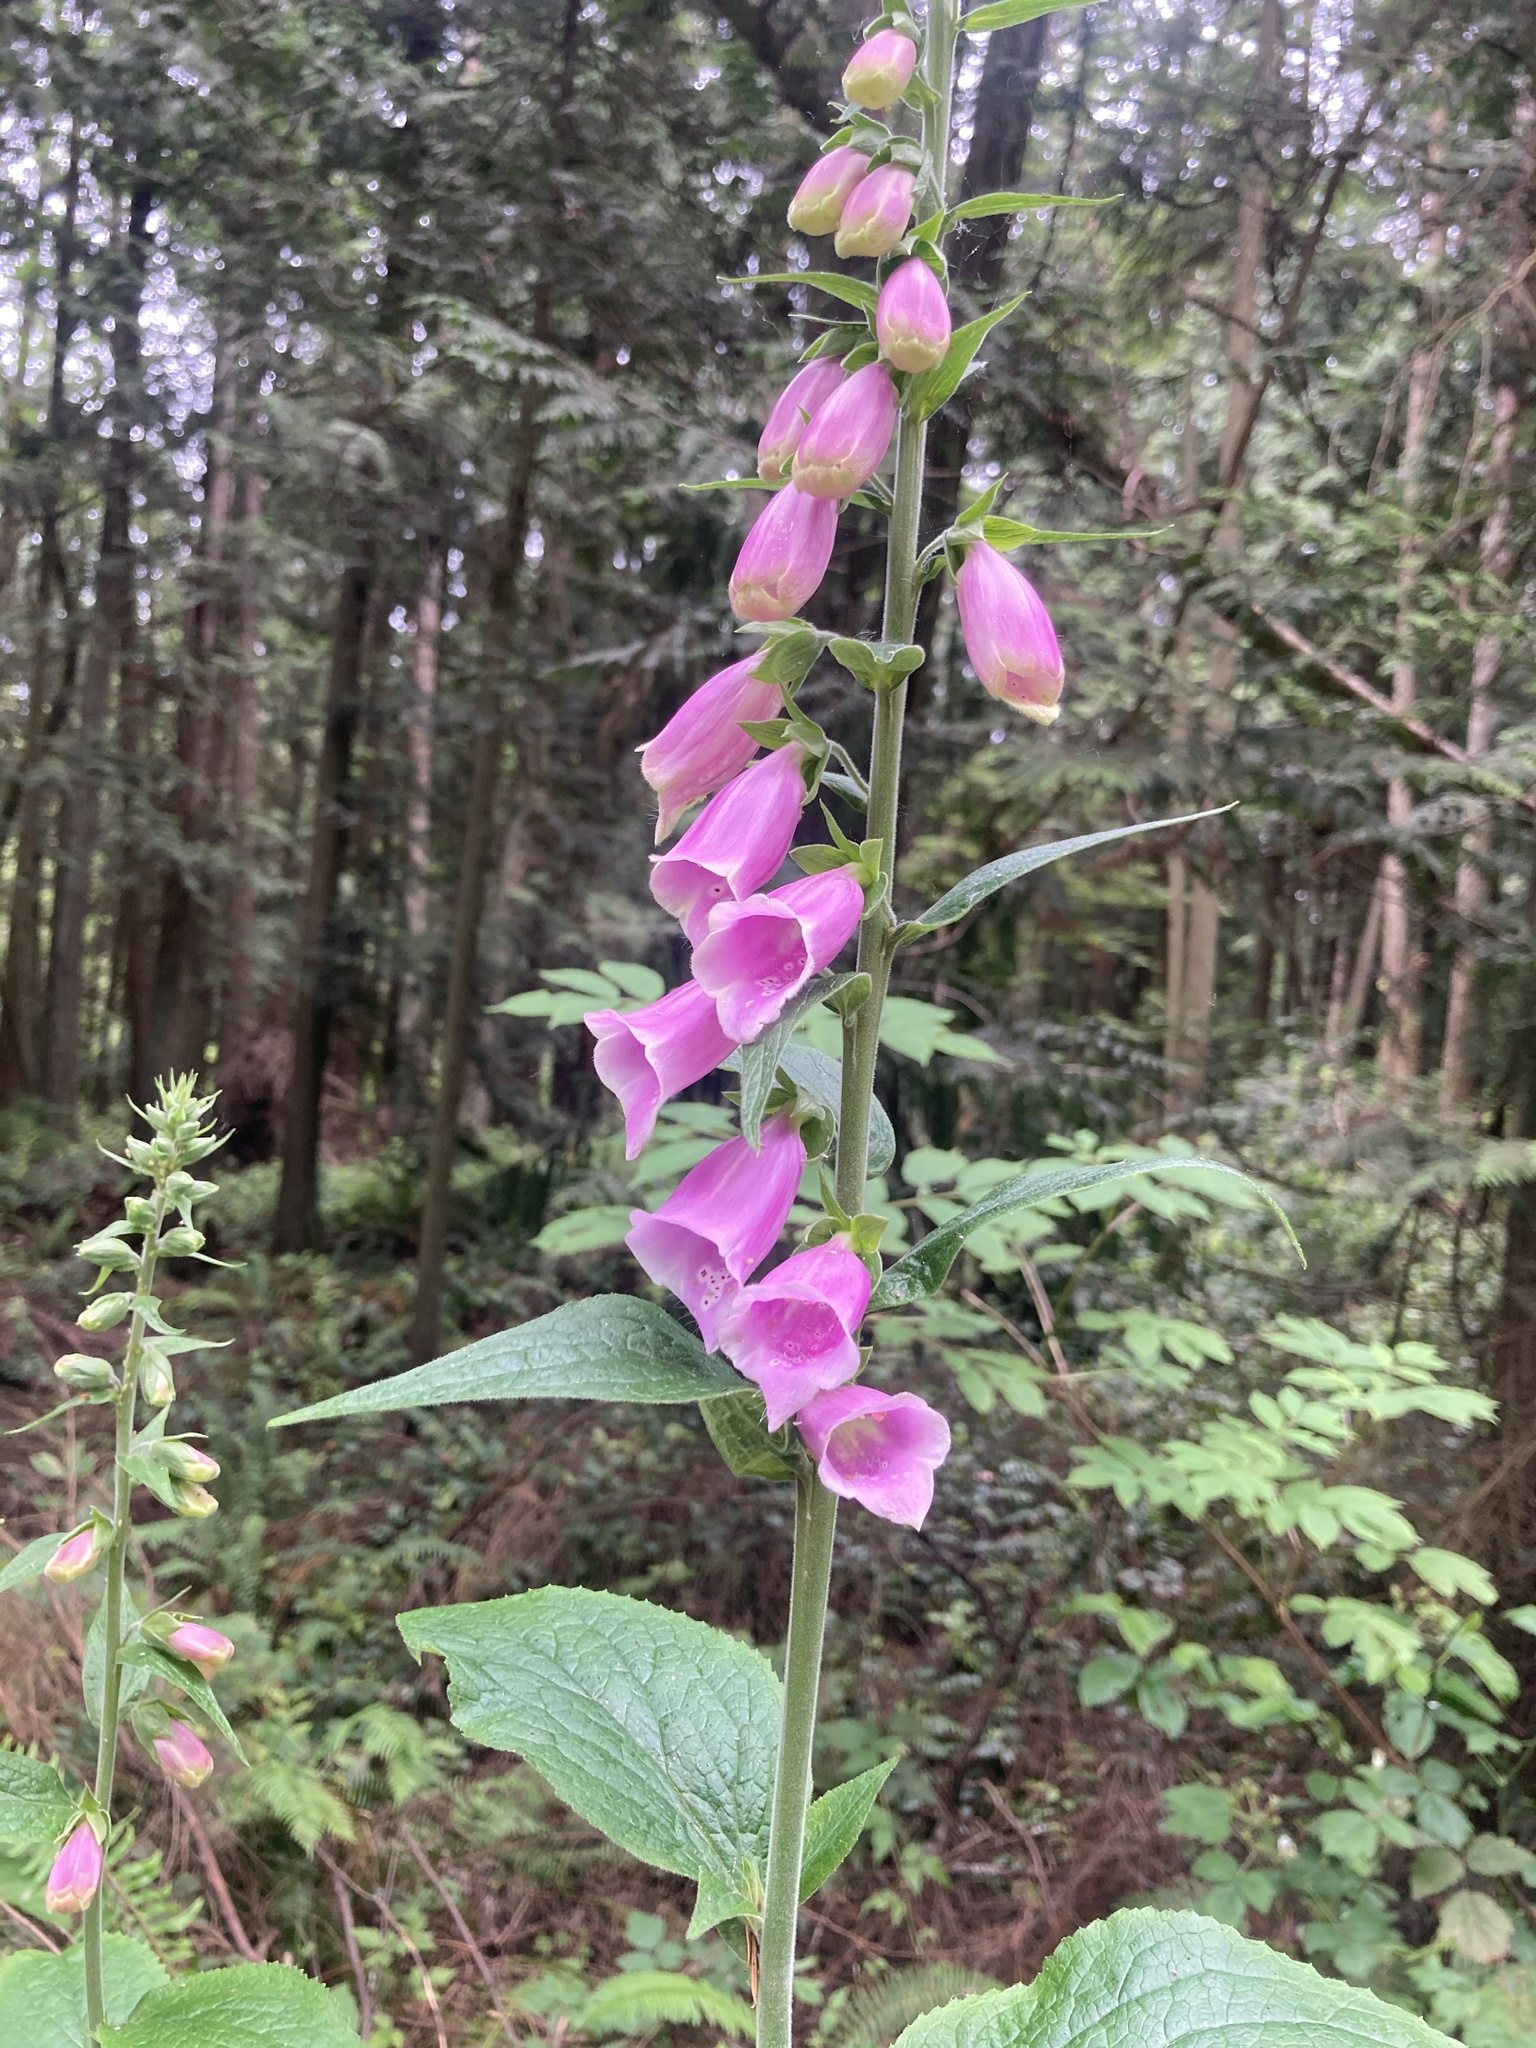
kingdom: Plantae
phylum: Tracheophyta
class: Magnoliopsida
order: Lamiales
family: Plantaginaceae
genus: Digitalis
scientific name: Digitalis purpurea
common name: Foxglove
